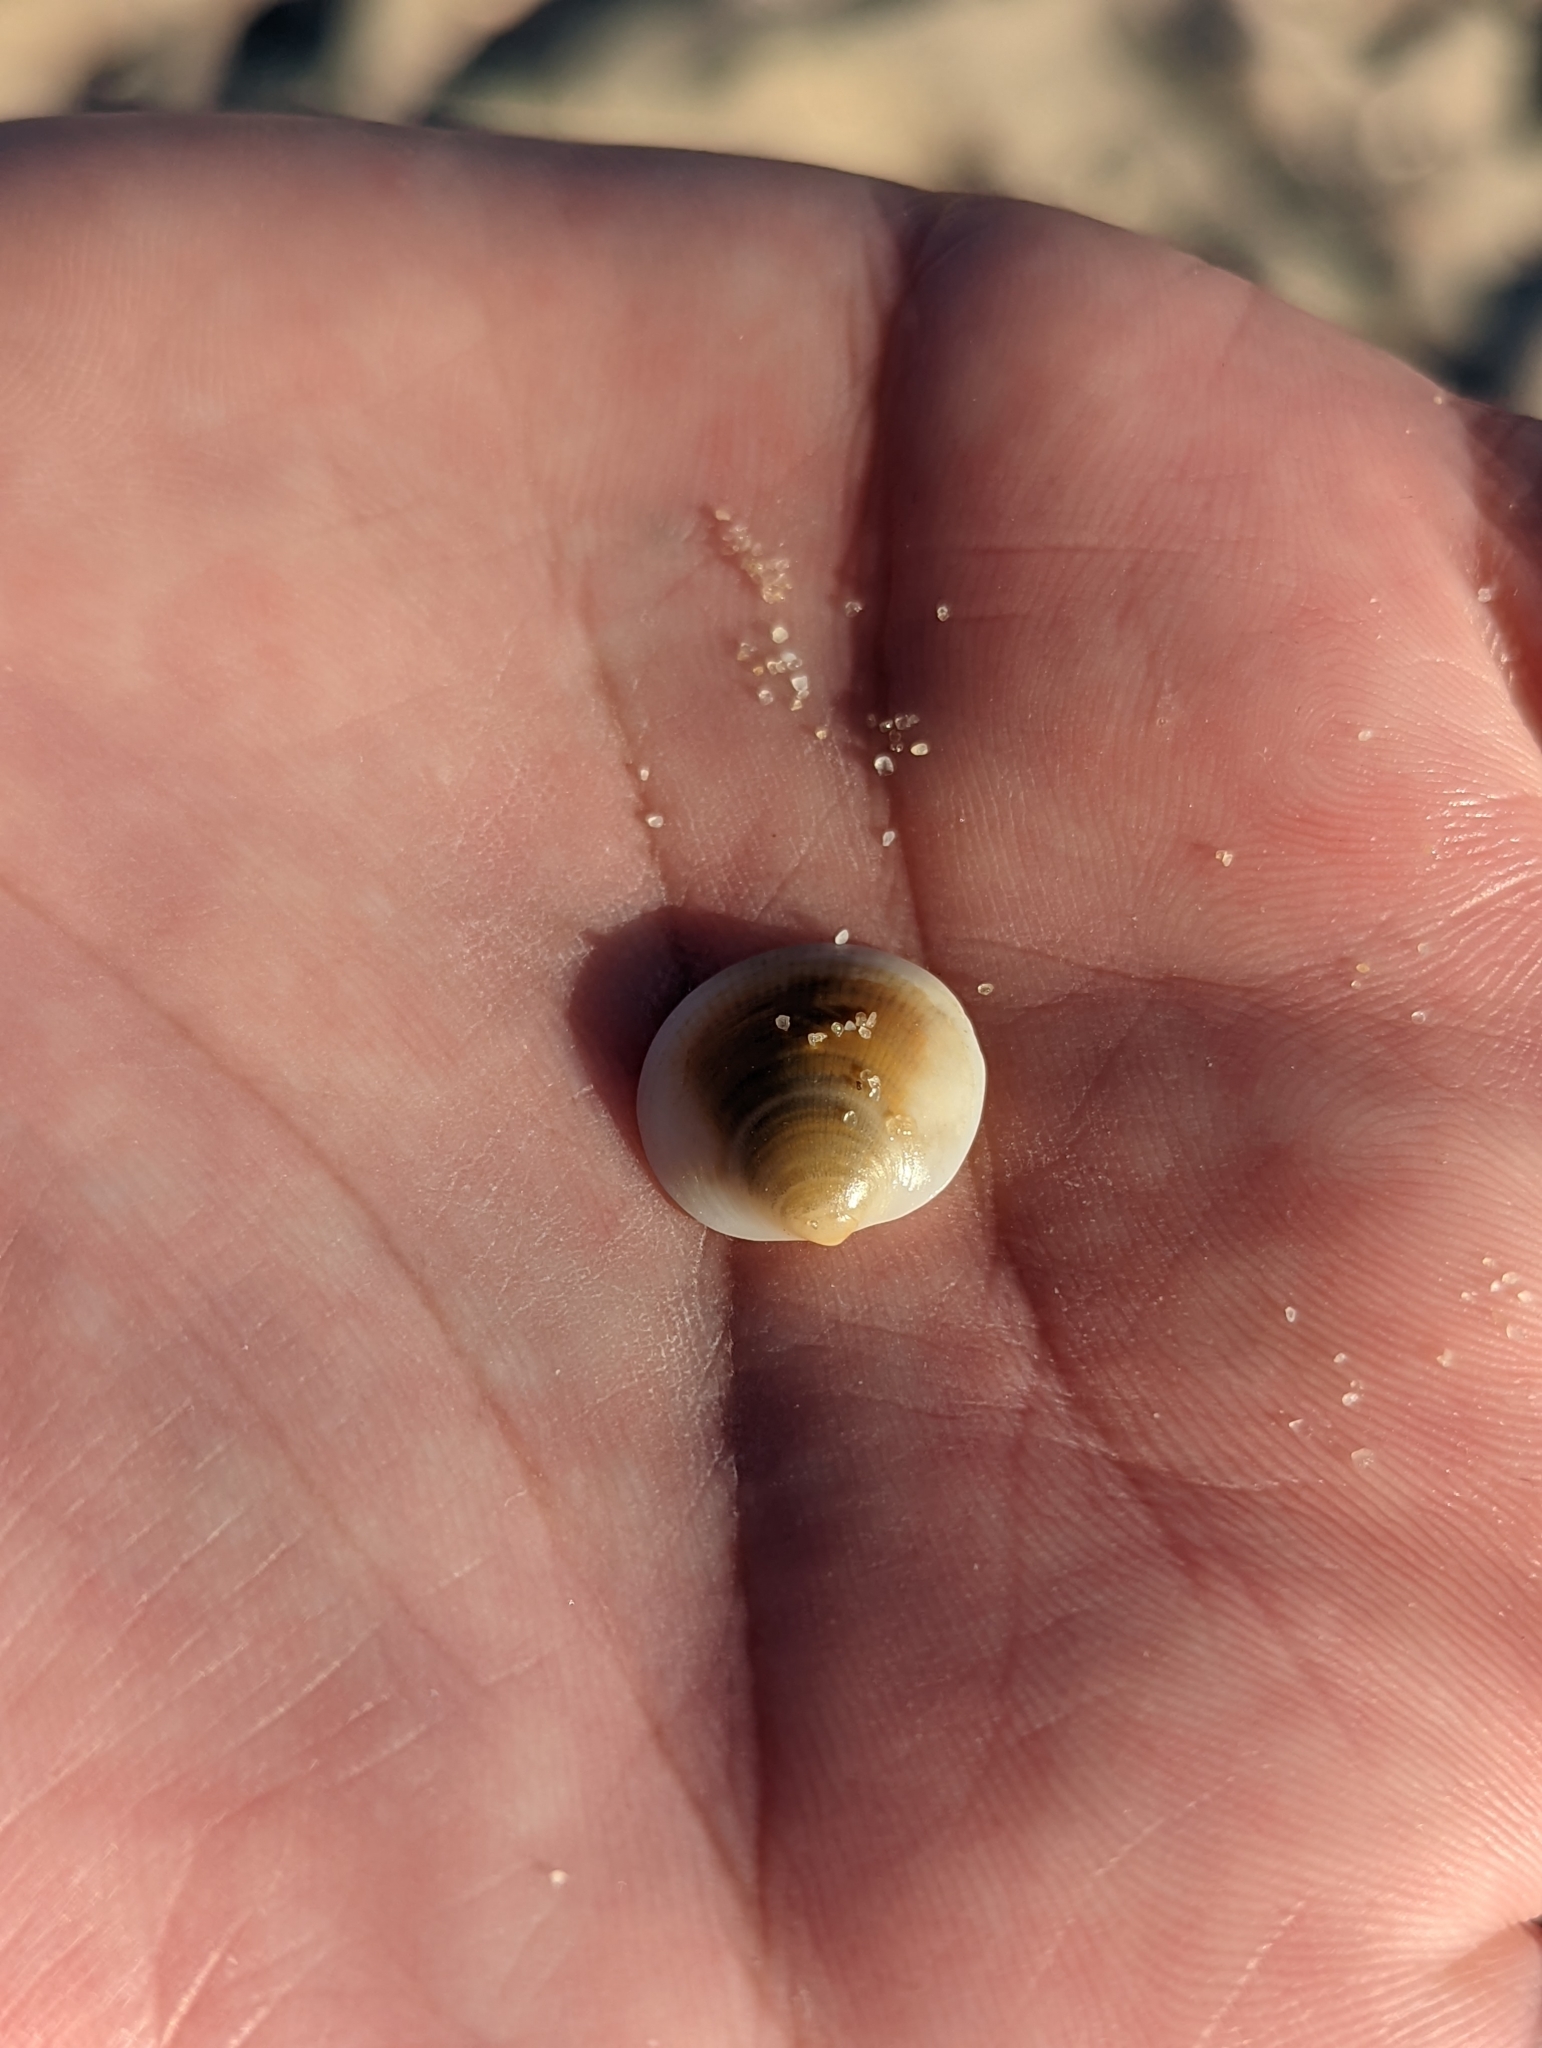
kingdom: Animalia
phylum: Mollusca
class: Bivalvia
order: Arcida
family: Glycymerididae
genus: Glycymeris
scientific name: Glycymeris grayana
